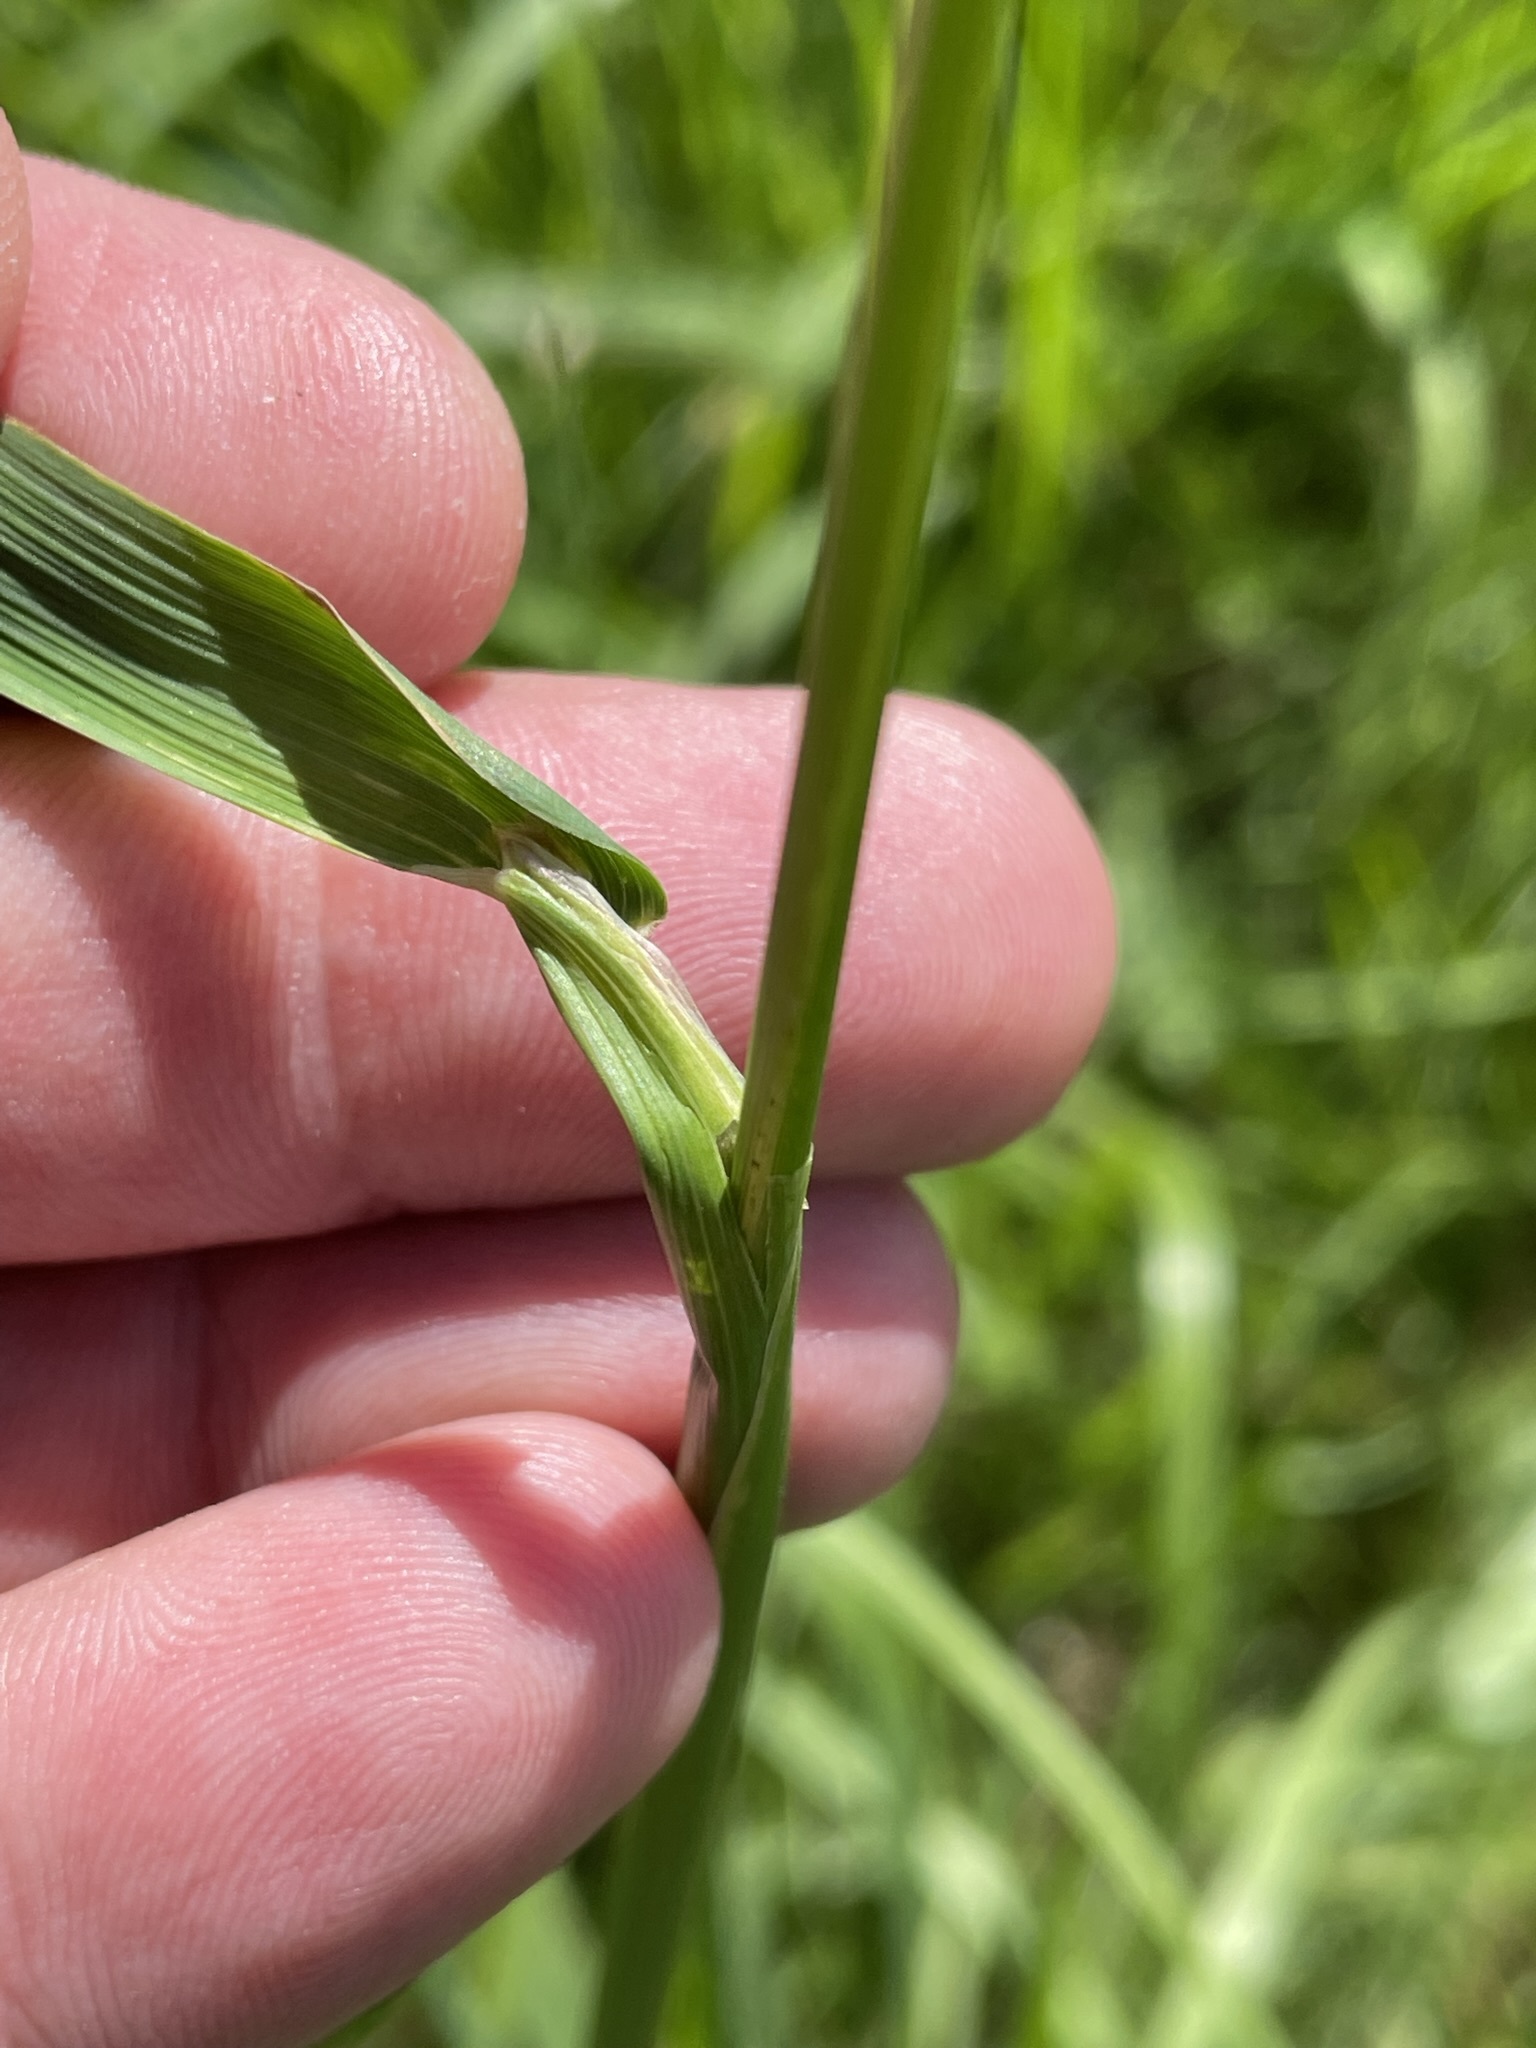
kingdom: Plantae
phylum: Tracheophyta
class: Liliopsida
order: Poales
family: Poaceae
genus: Alopecurus
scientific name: Alopecurus pratensis
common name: Meadow foxtail
